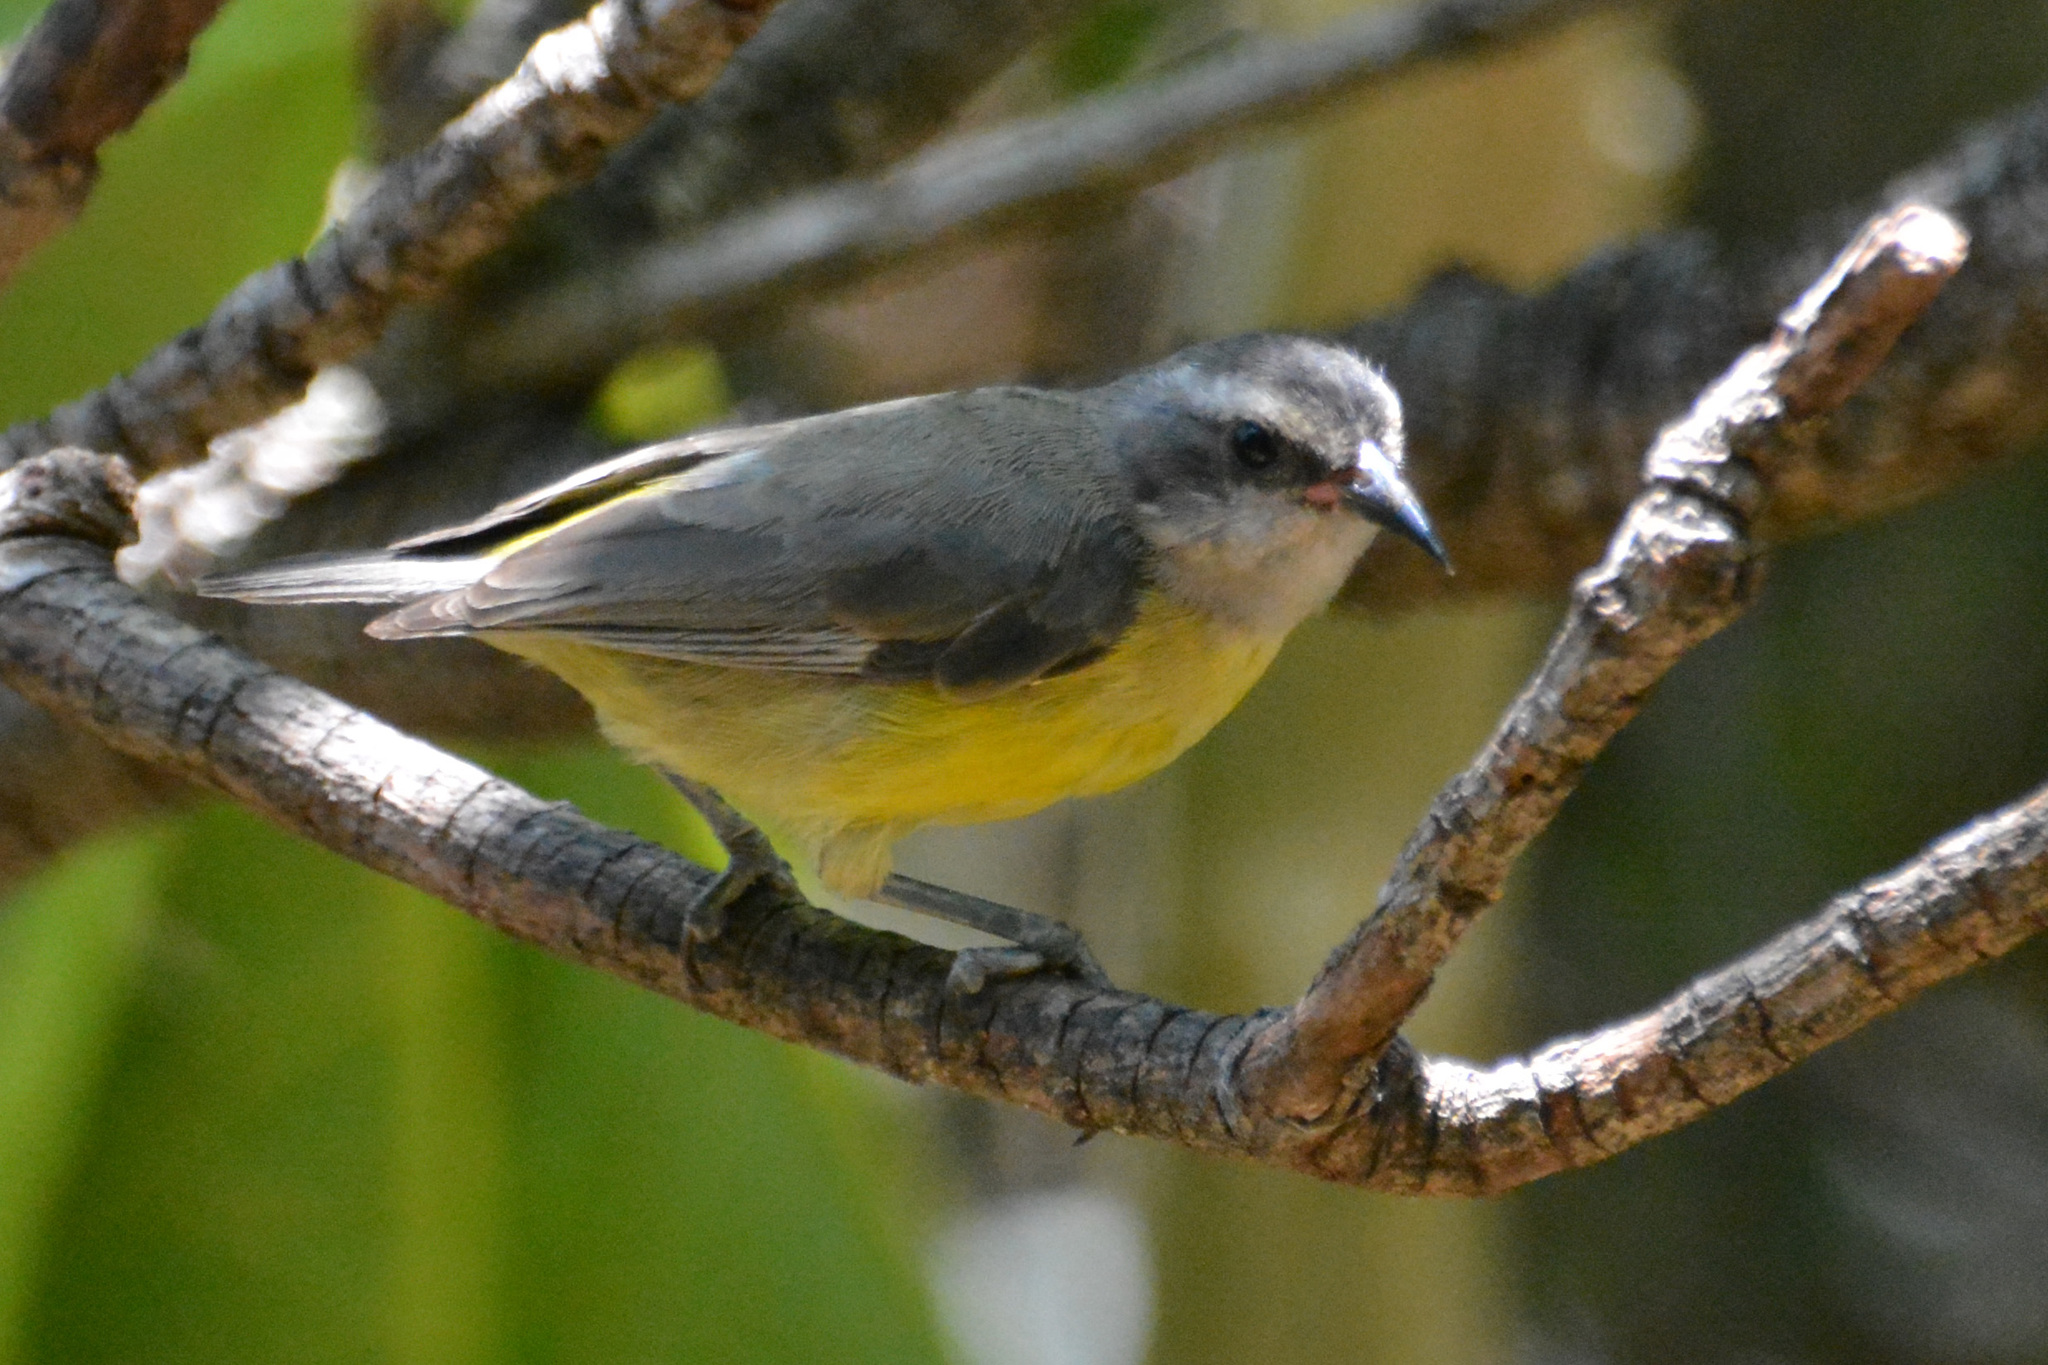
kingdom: Animalia
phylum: Chordata
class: Aves
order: Passeriformes
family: Thraupidae
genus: Coereba
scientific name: Coereba flaveola
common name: Bananaquit
